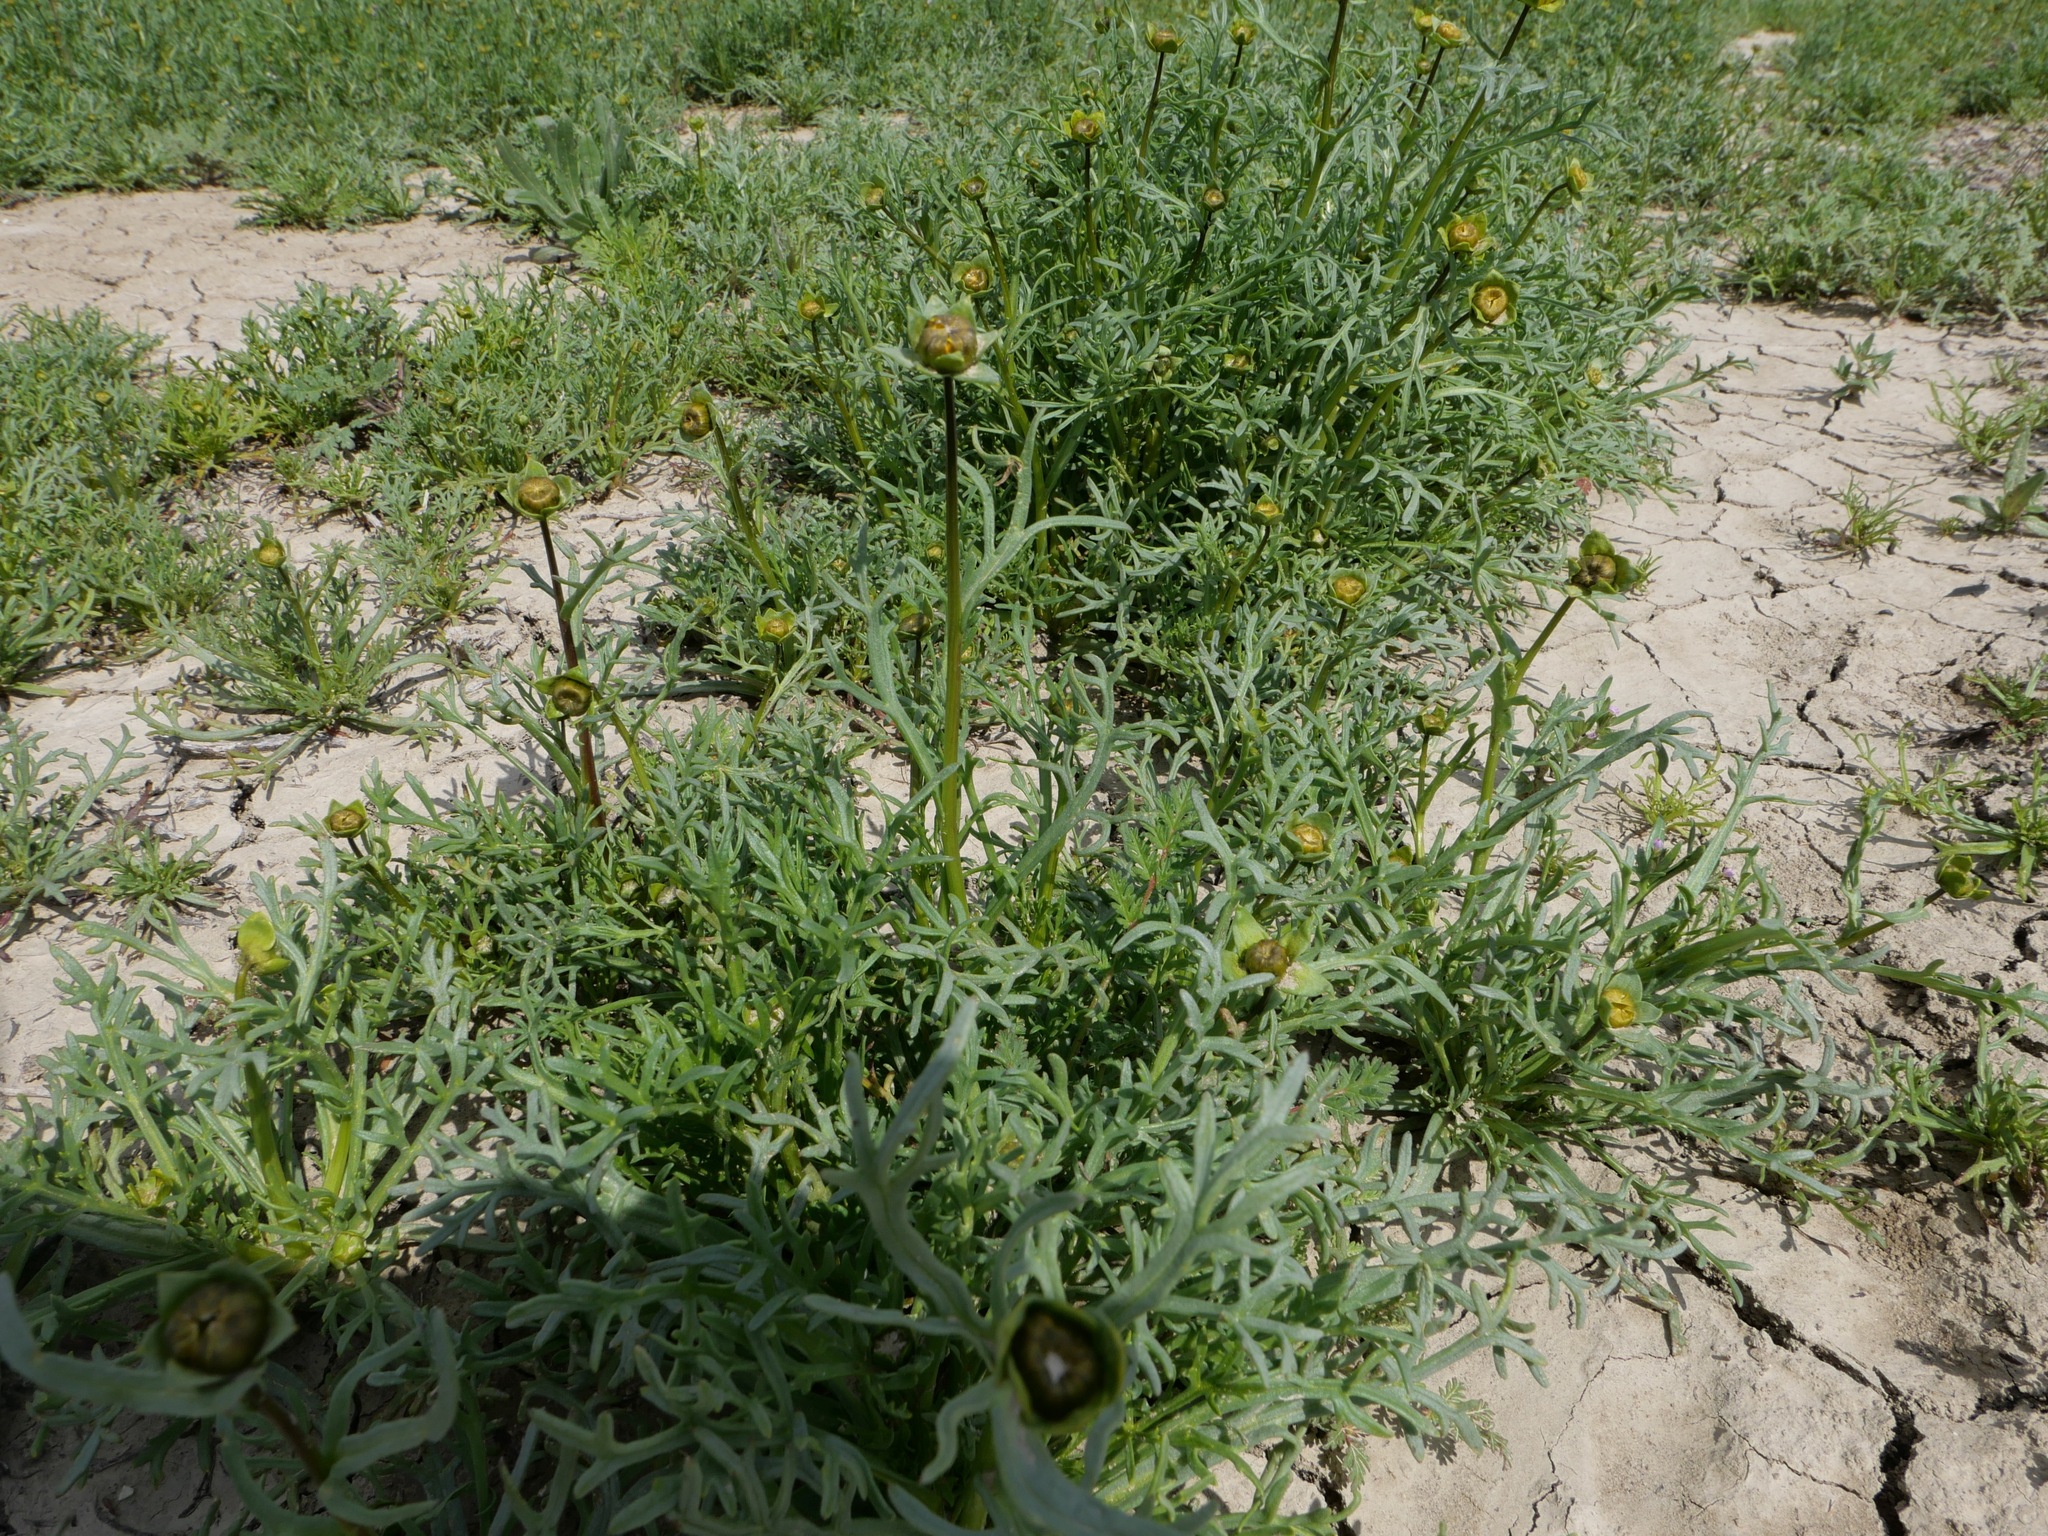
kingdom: Plantae
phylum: Tracheophyta
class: Magnoliopsida
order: Asterales
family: Asteraceae
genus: Coreopsis
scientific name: Coreopsis calliopsidea
